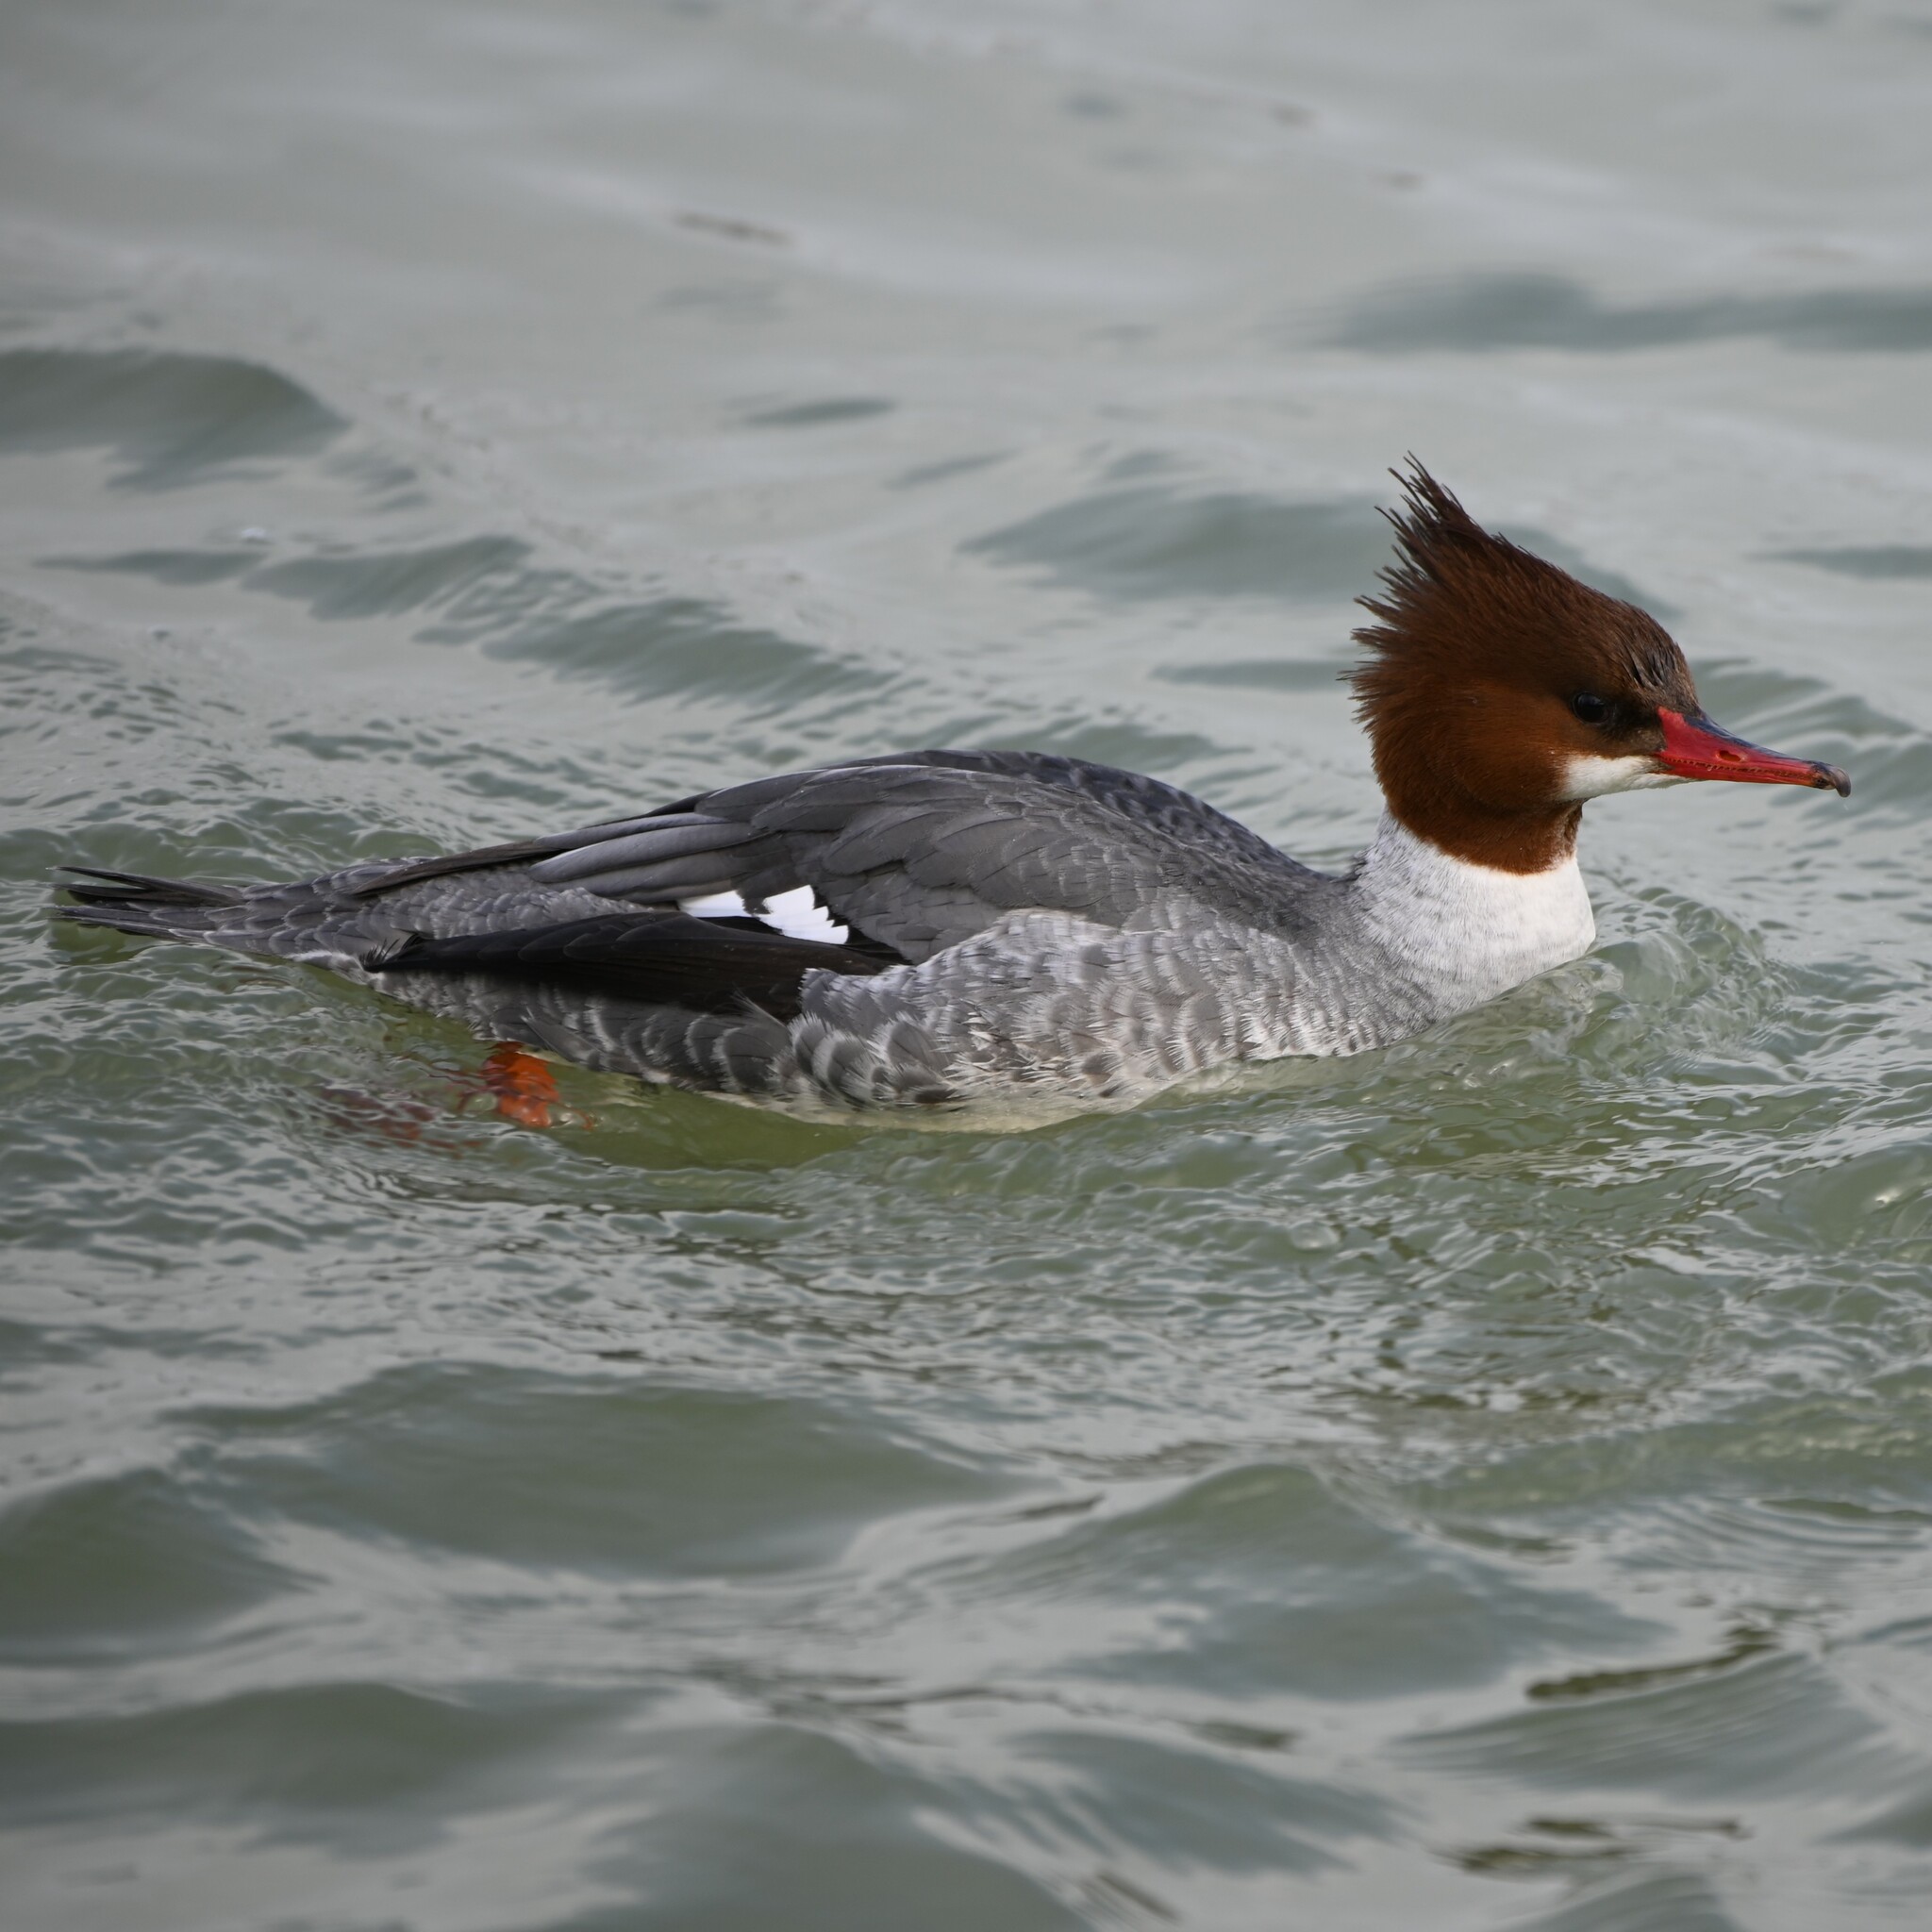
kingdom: Animalia
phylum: Chordata
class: Aves
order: Anseriformes
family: Anatidae
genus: Mergus
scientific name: Mergus merganser
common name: Common merganser
